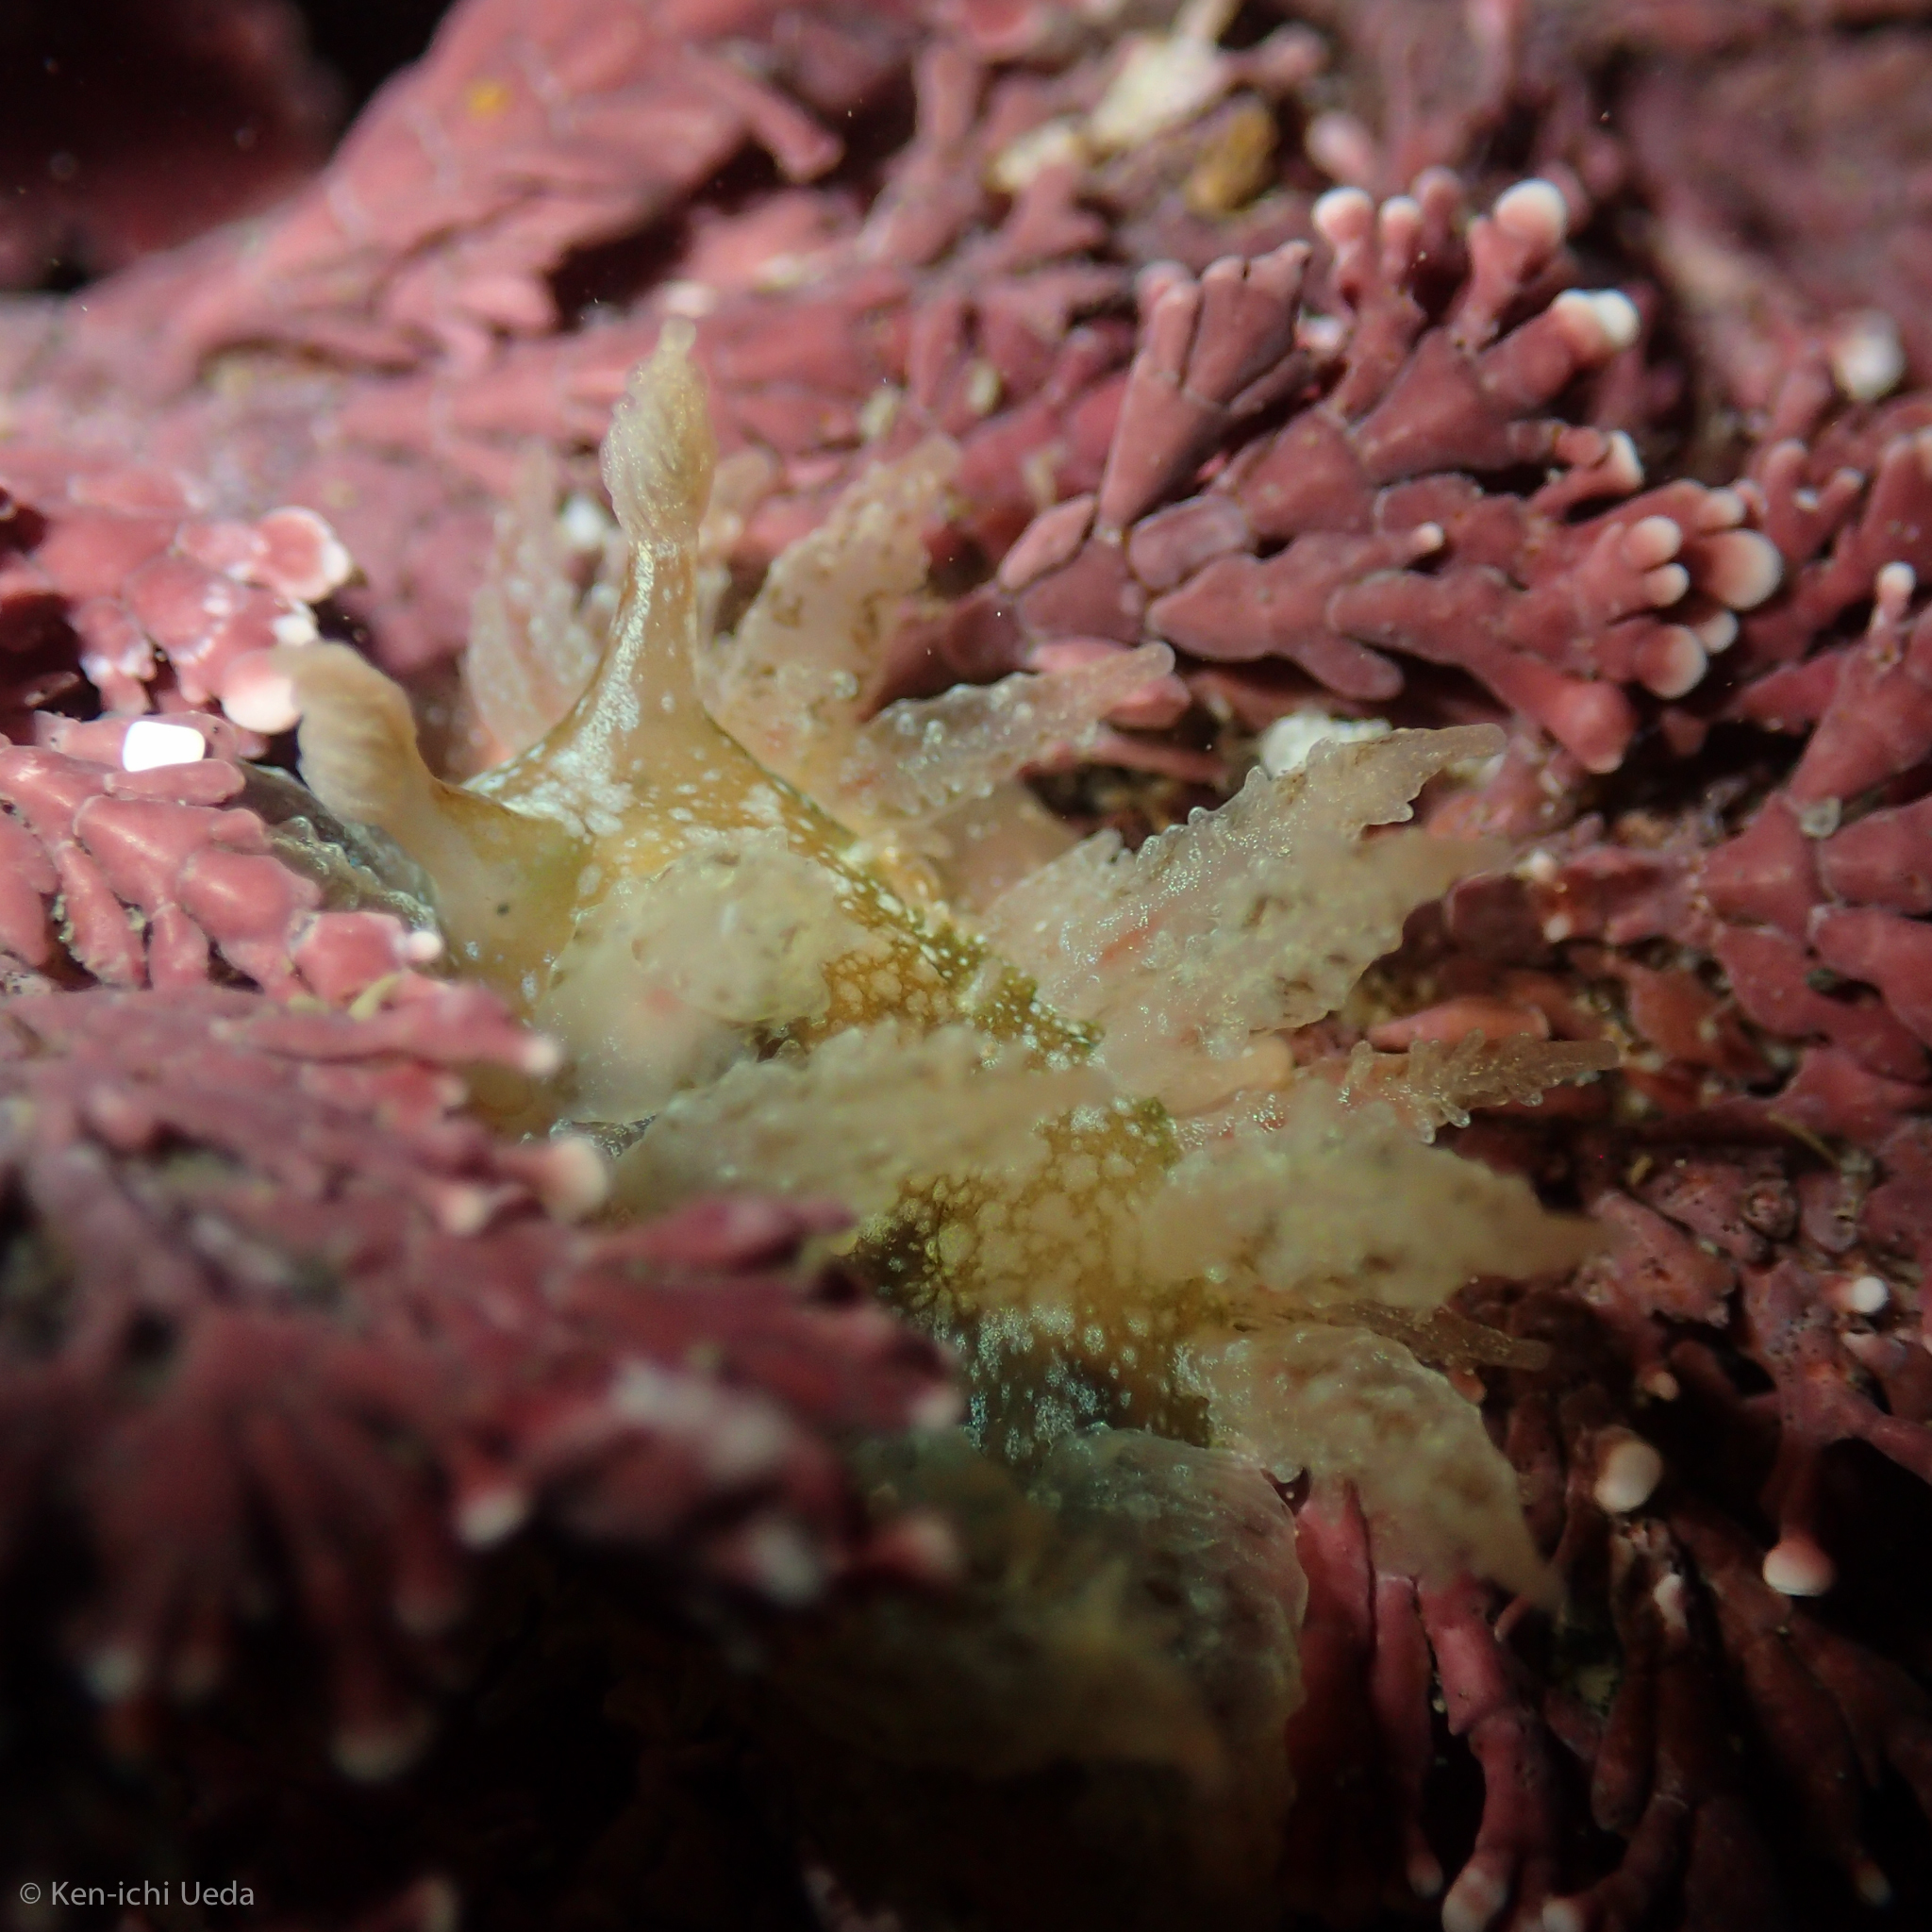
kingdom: Animalia
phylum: Mollusca
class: Gastropoda
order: Nudibranchia
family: Dironidae
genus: Dirona
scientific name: Dirona picta
